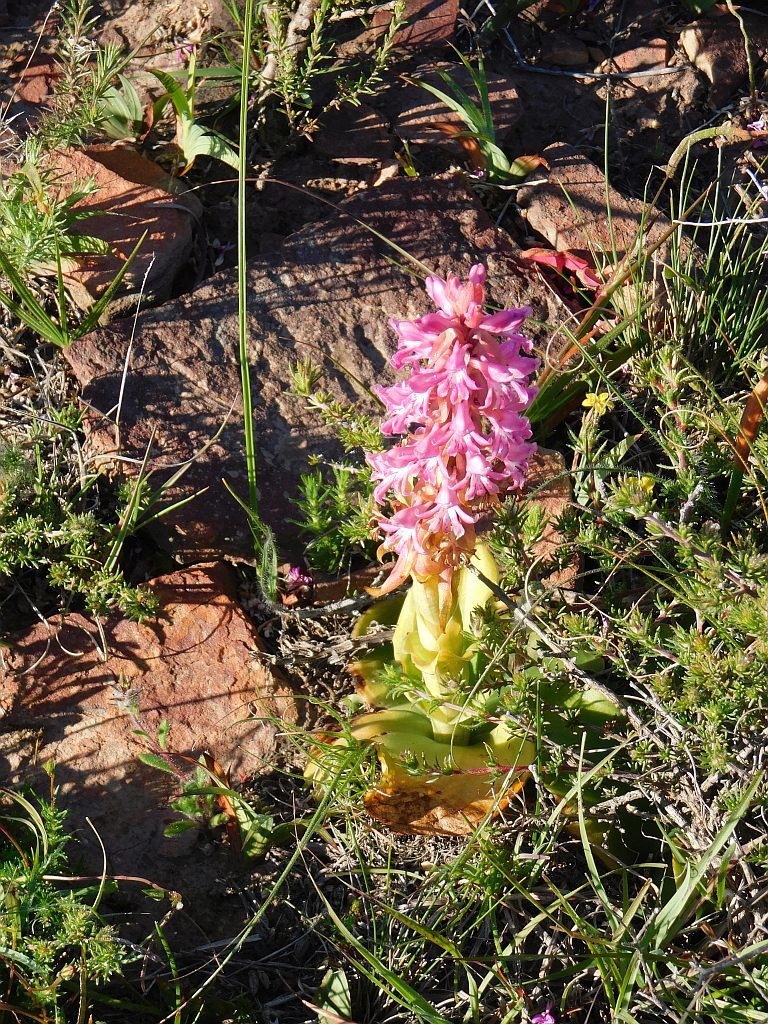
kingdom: Plantae
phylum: Tracheophyta
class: Liliopsida
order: Asparagales
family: Orchidaceae
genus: Satyrium
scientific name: Satyrium erectum
